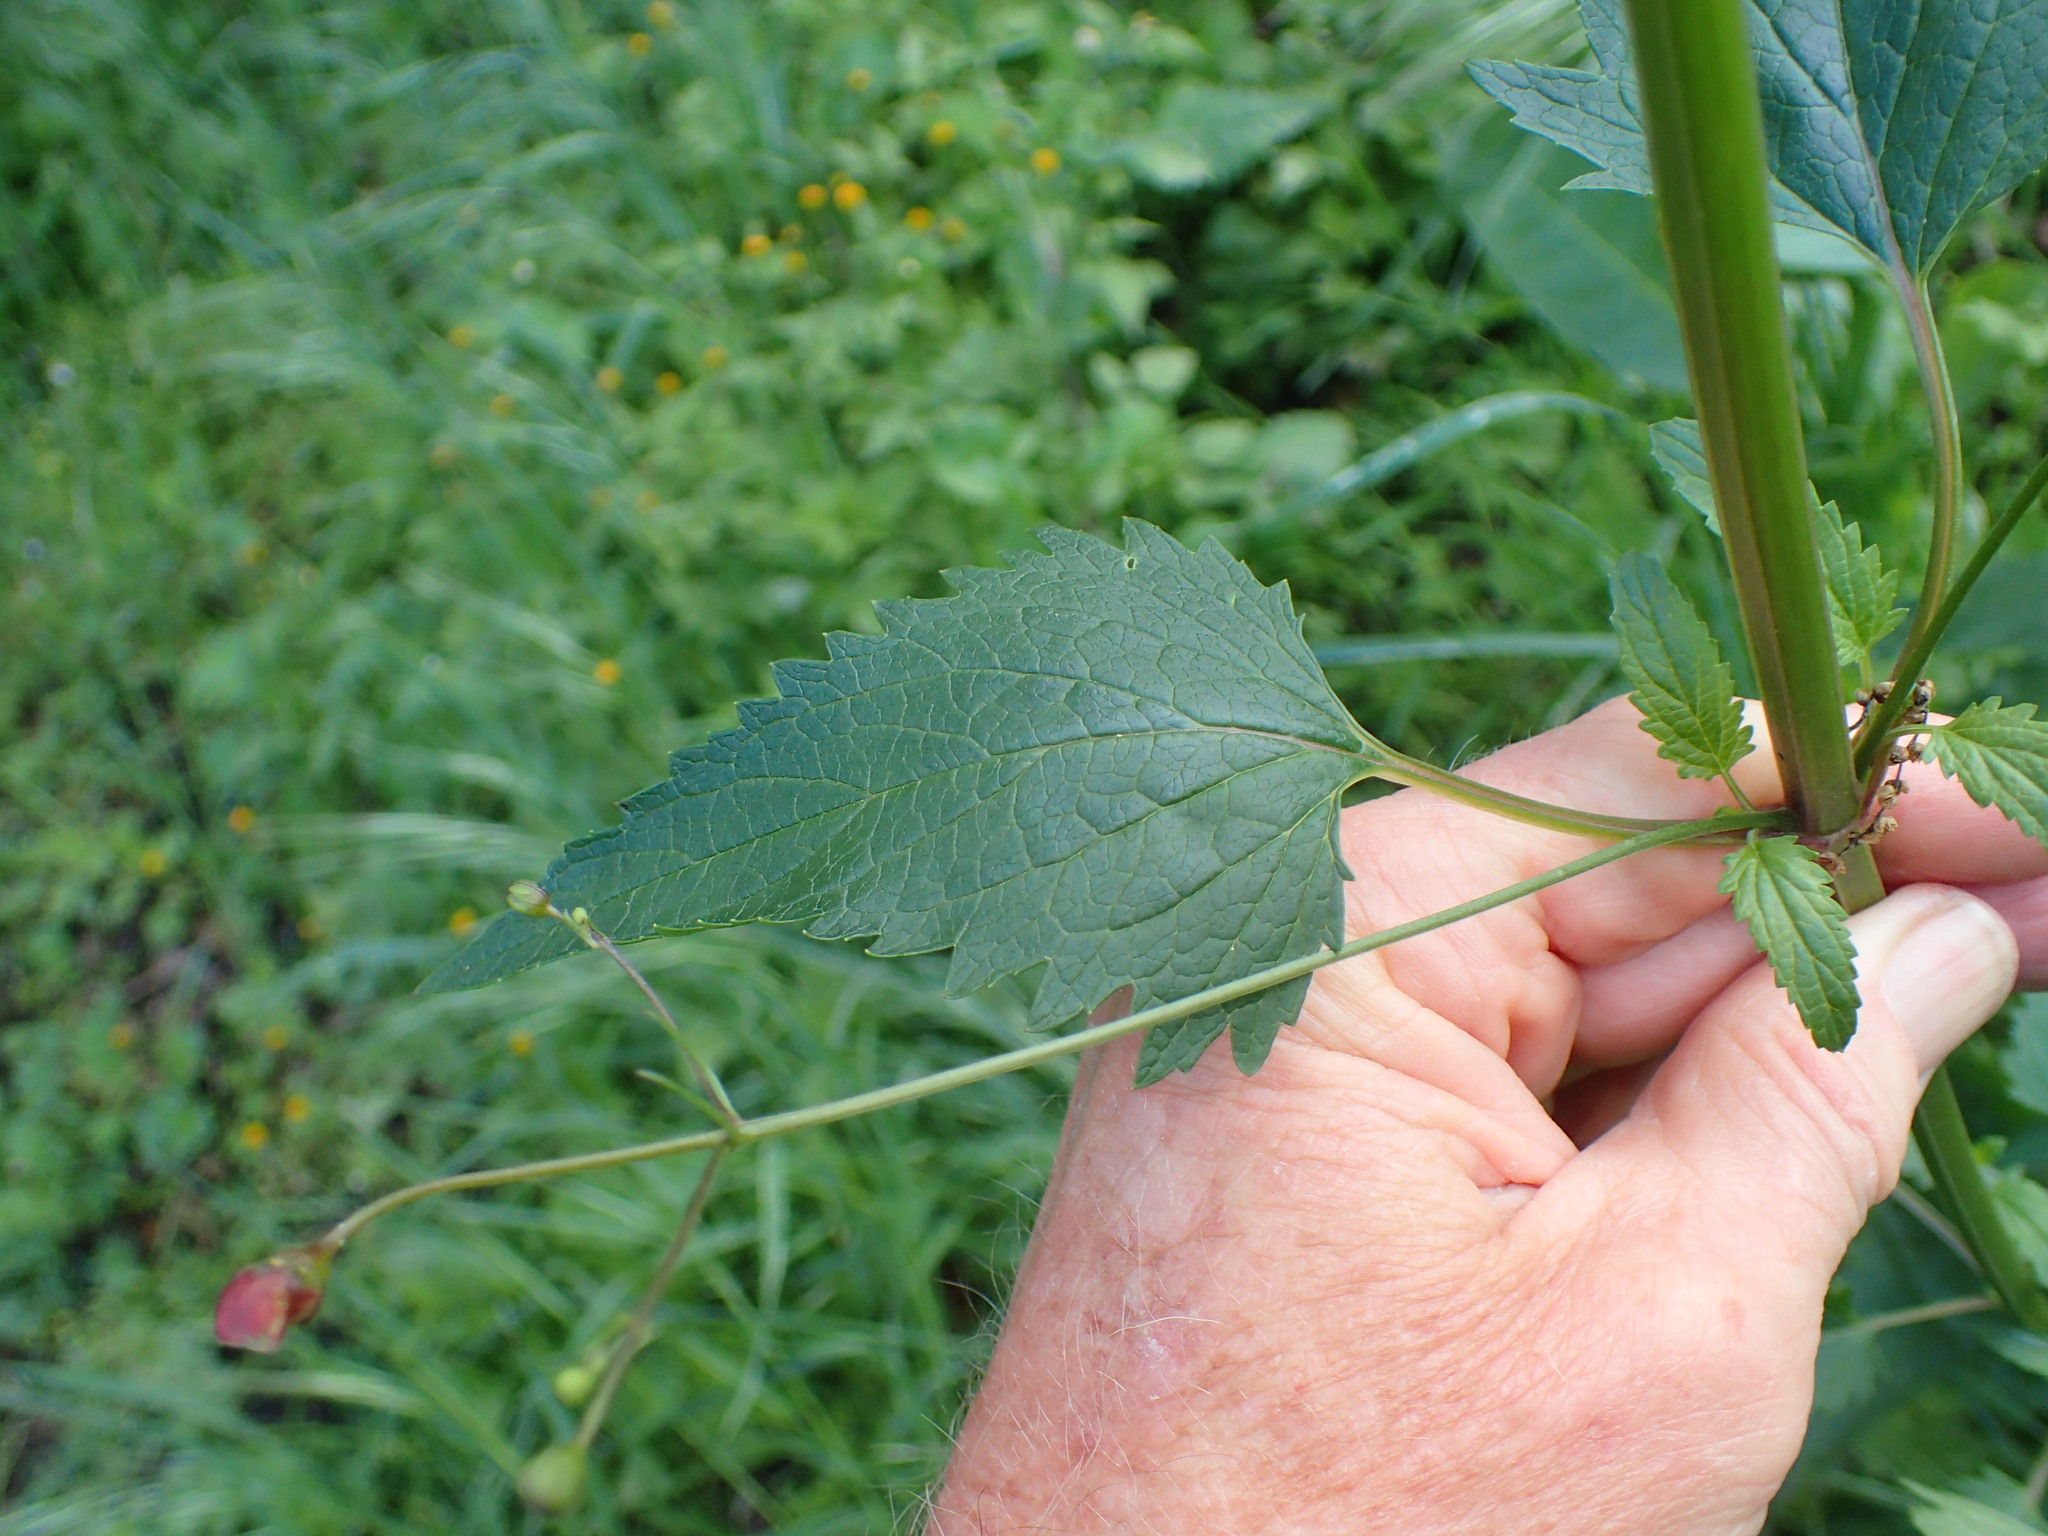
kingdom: Plantae
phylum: Tracheophyta
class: Magnoliopsida
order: Lamiales
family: Scrophulariaceae
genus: Scrophularia
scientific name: Scrophularia californica
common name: California figwort
